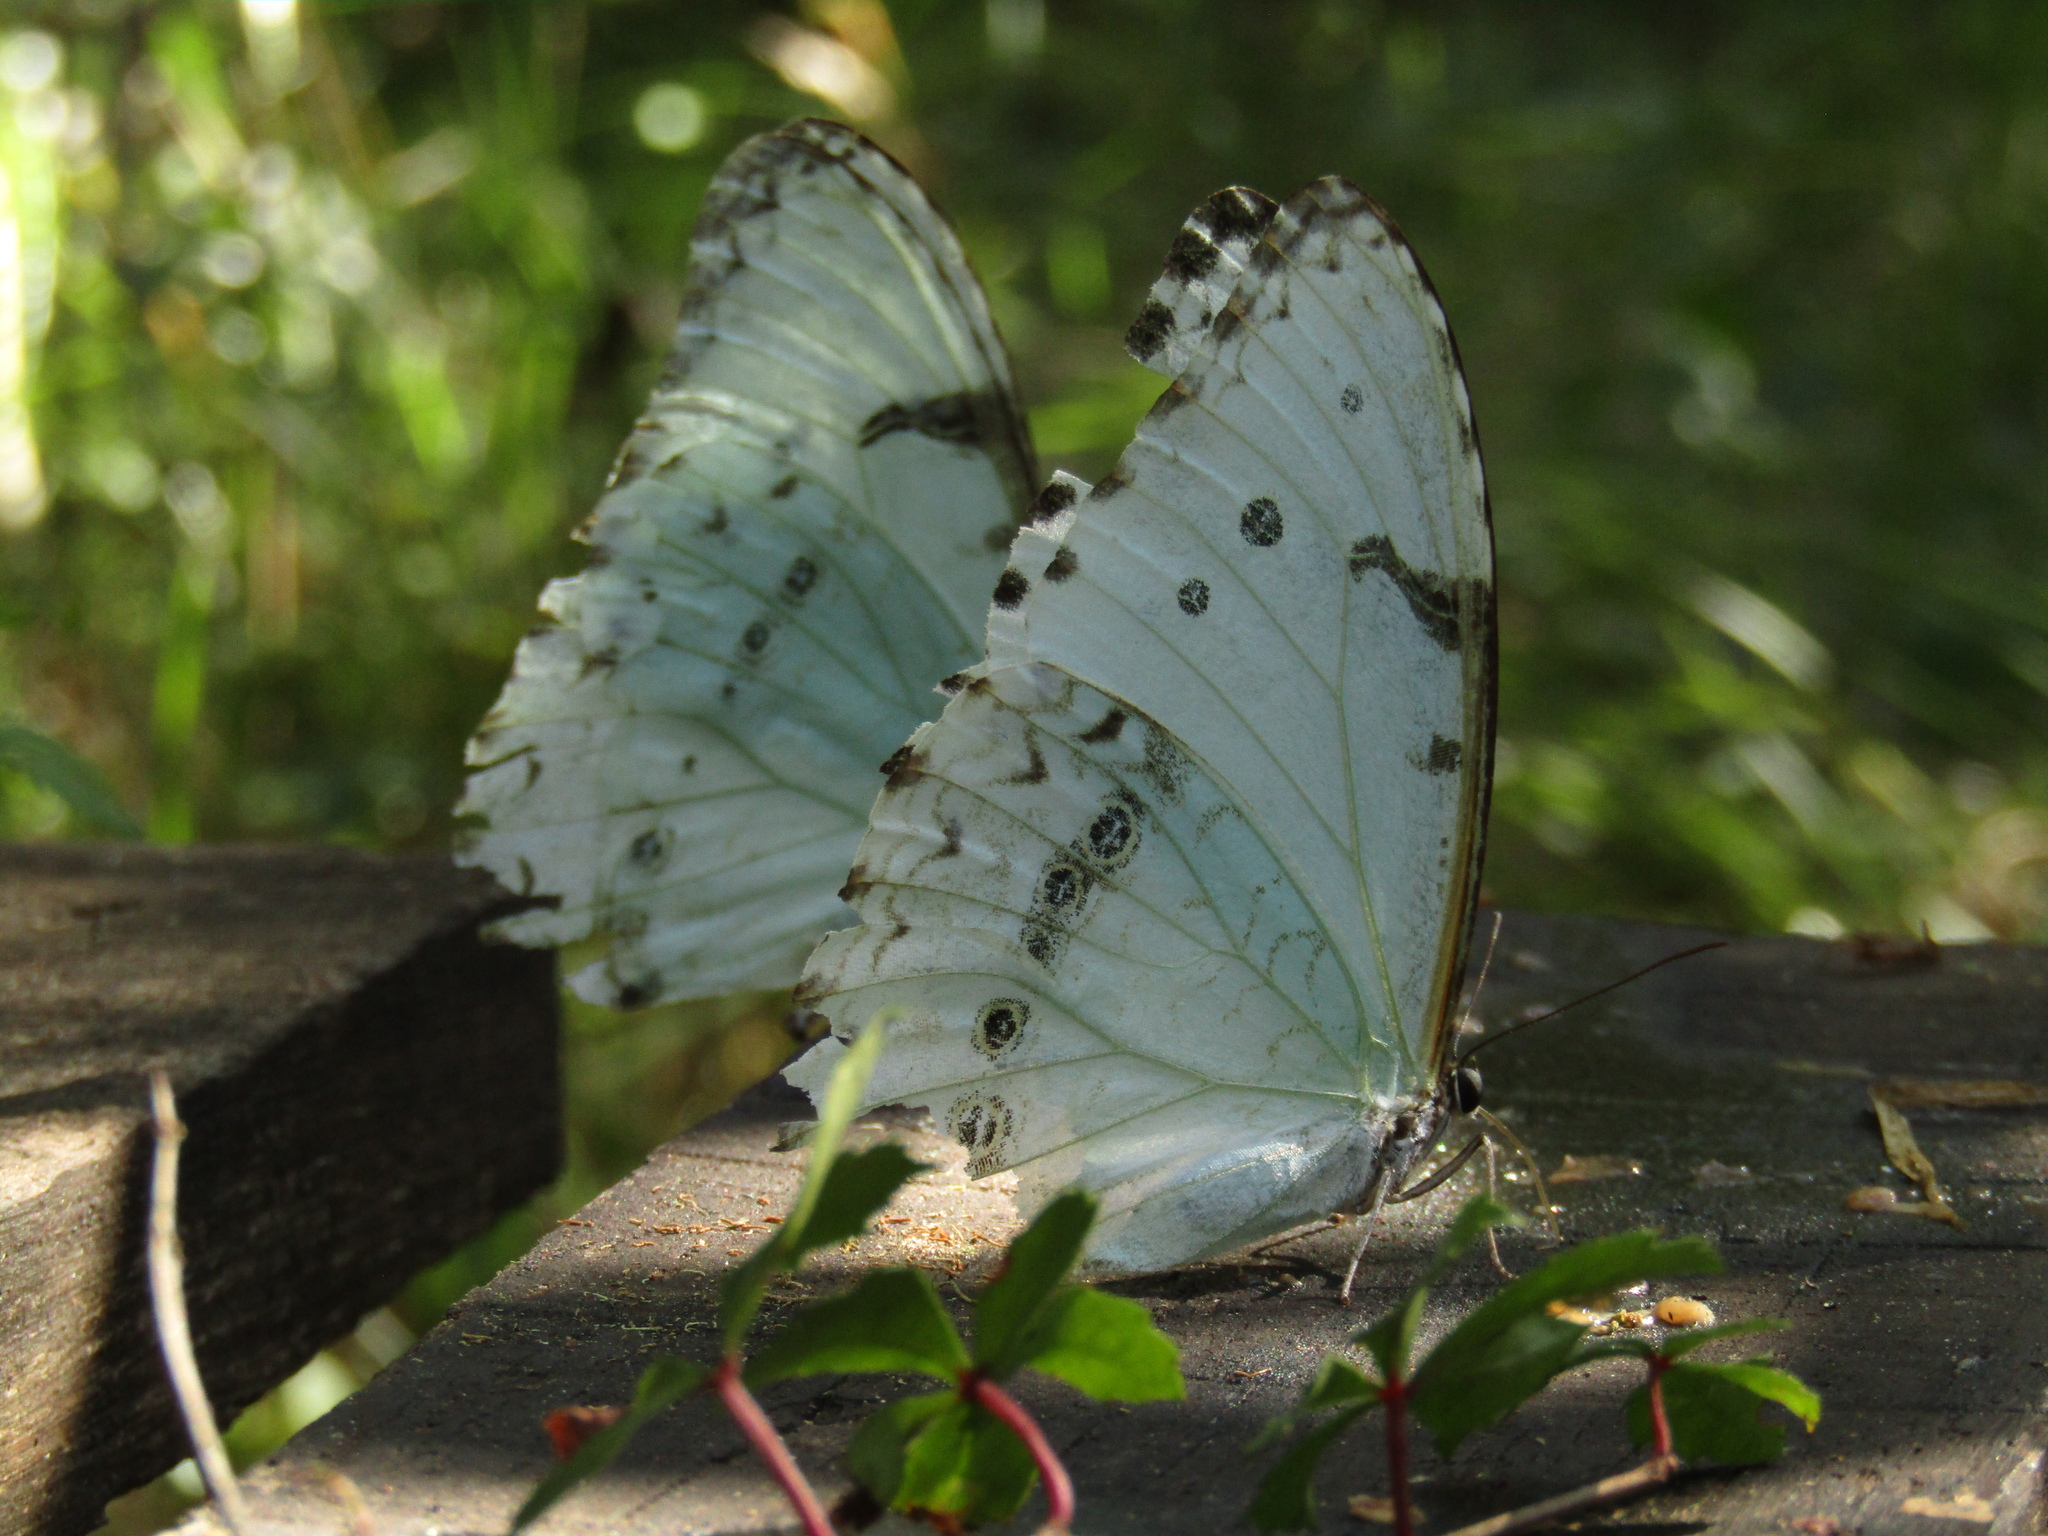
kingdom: Animalia
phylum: Arthropoda
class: Insecta
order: Lepidoptera
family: Nymphalidae
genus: Morpho
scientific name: Morpho epistrophus
